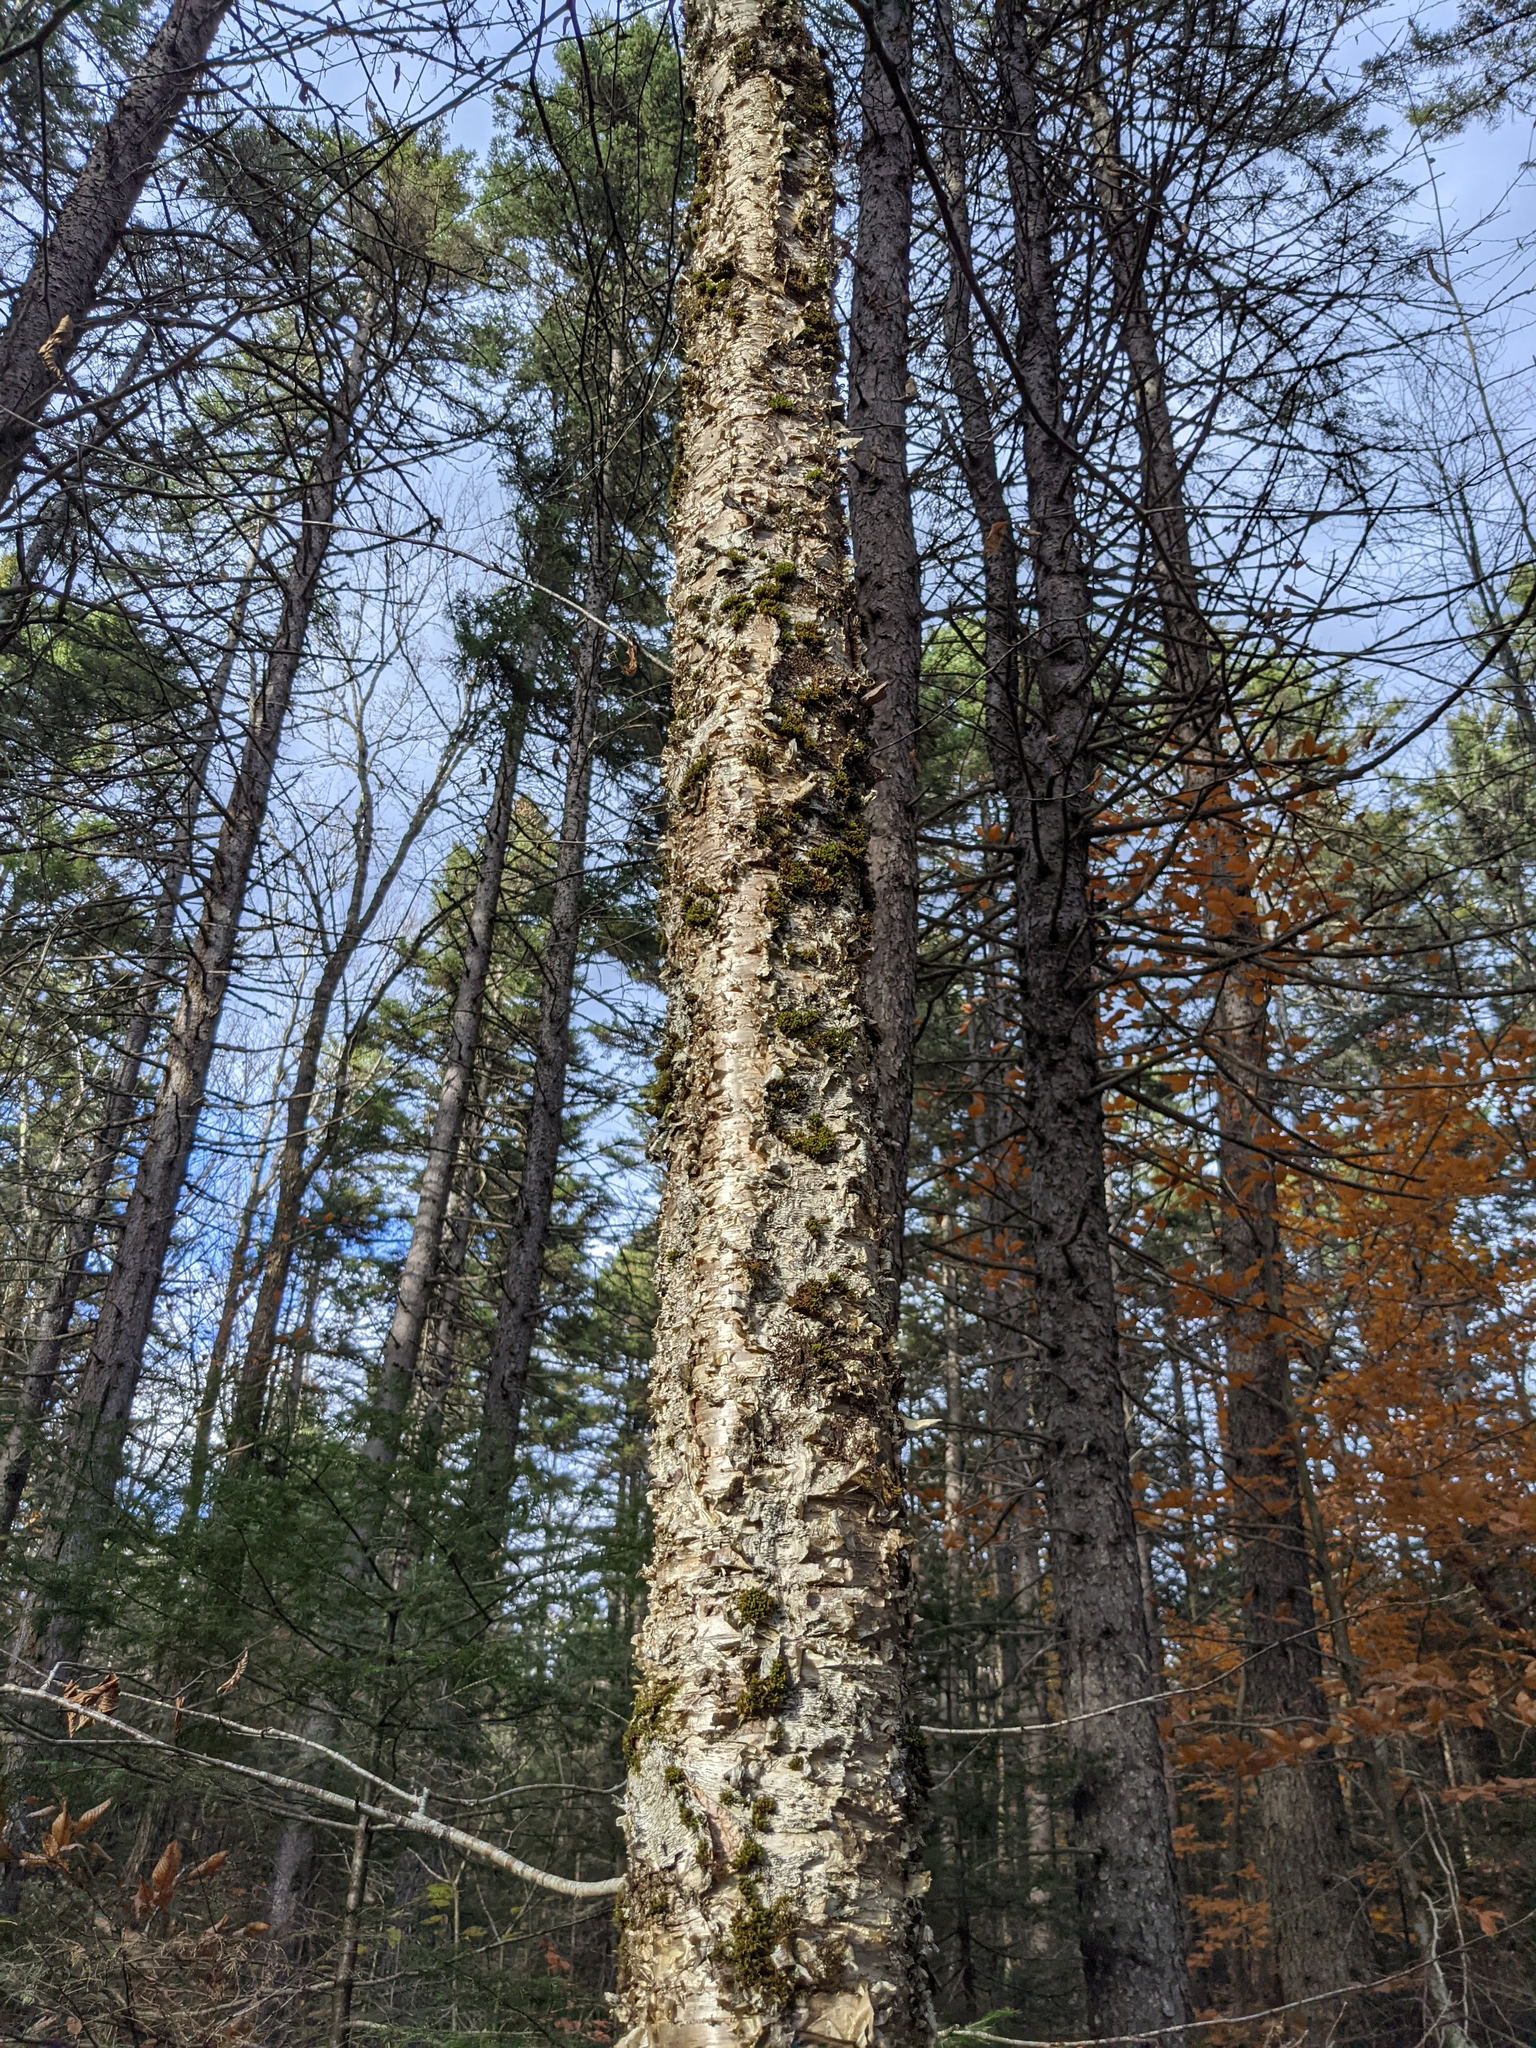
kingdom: Plantae
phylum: Tracheophyta
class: Magnoliopsida
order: Fagales
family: Betulaceae
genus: Betula
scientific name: Betula alleghaniensis
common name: Yellow birch
